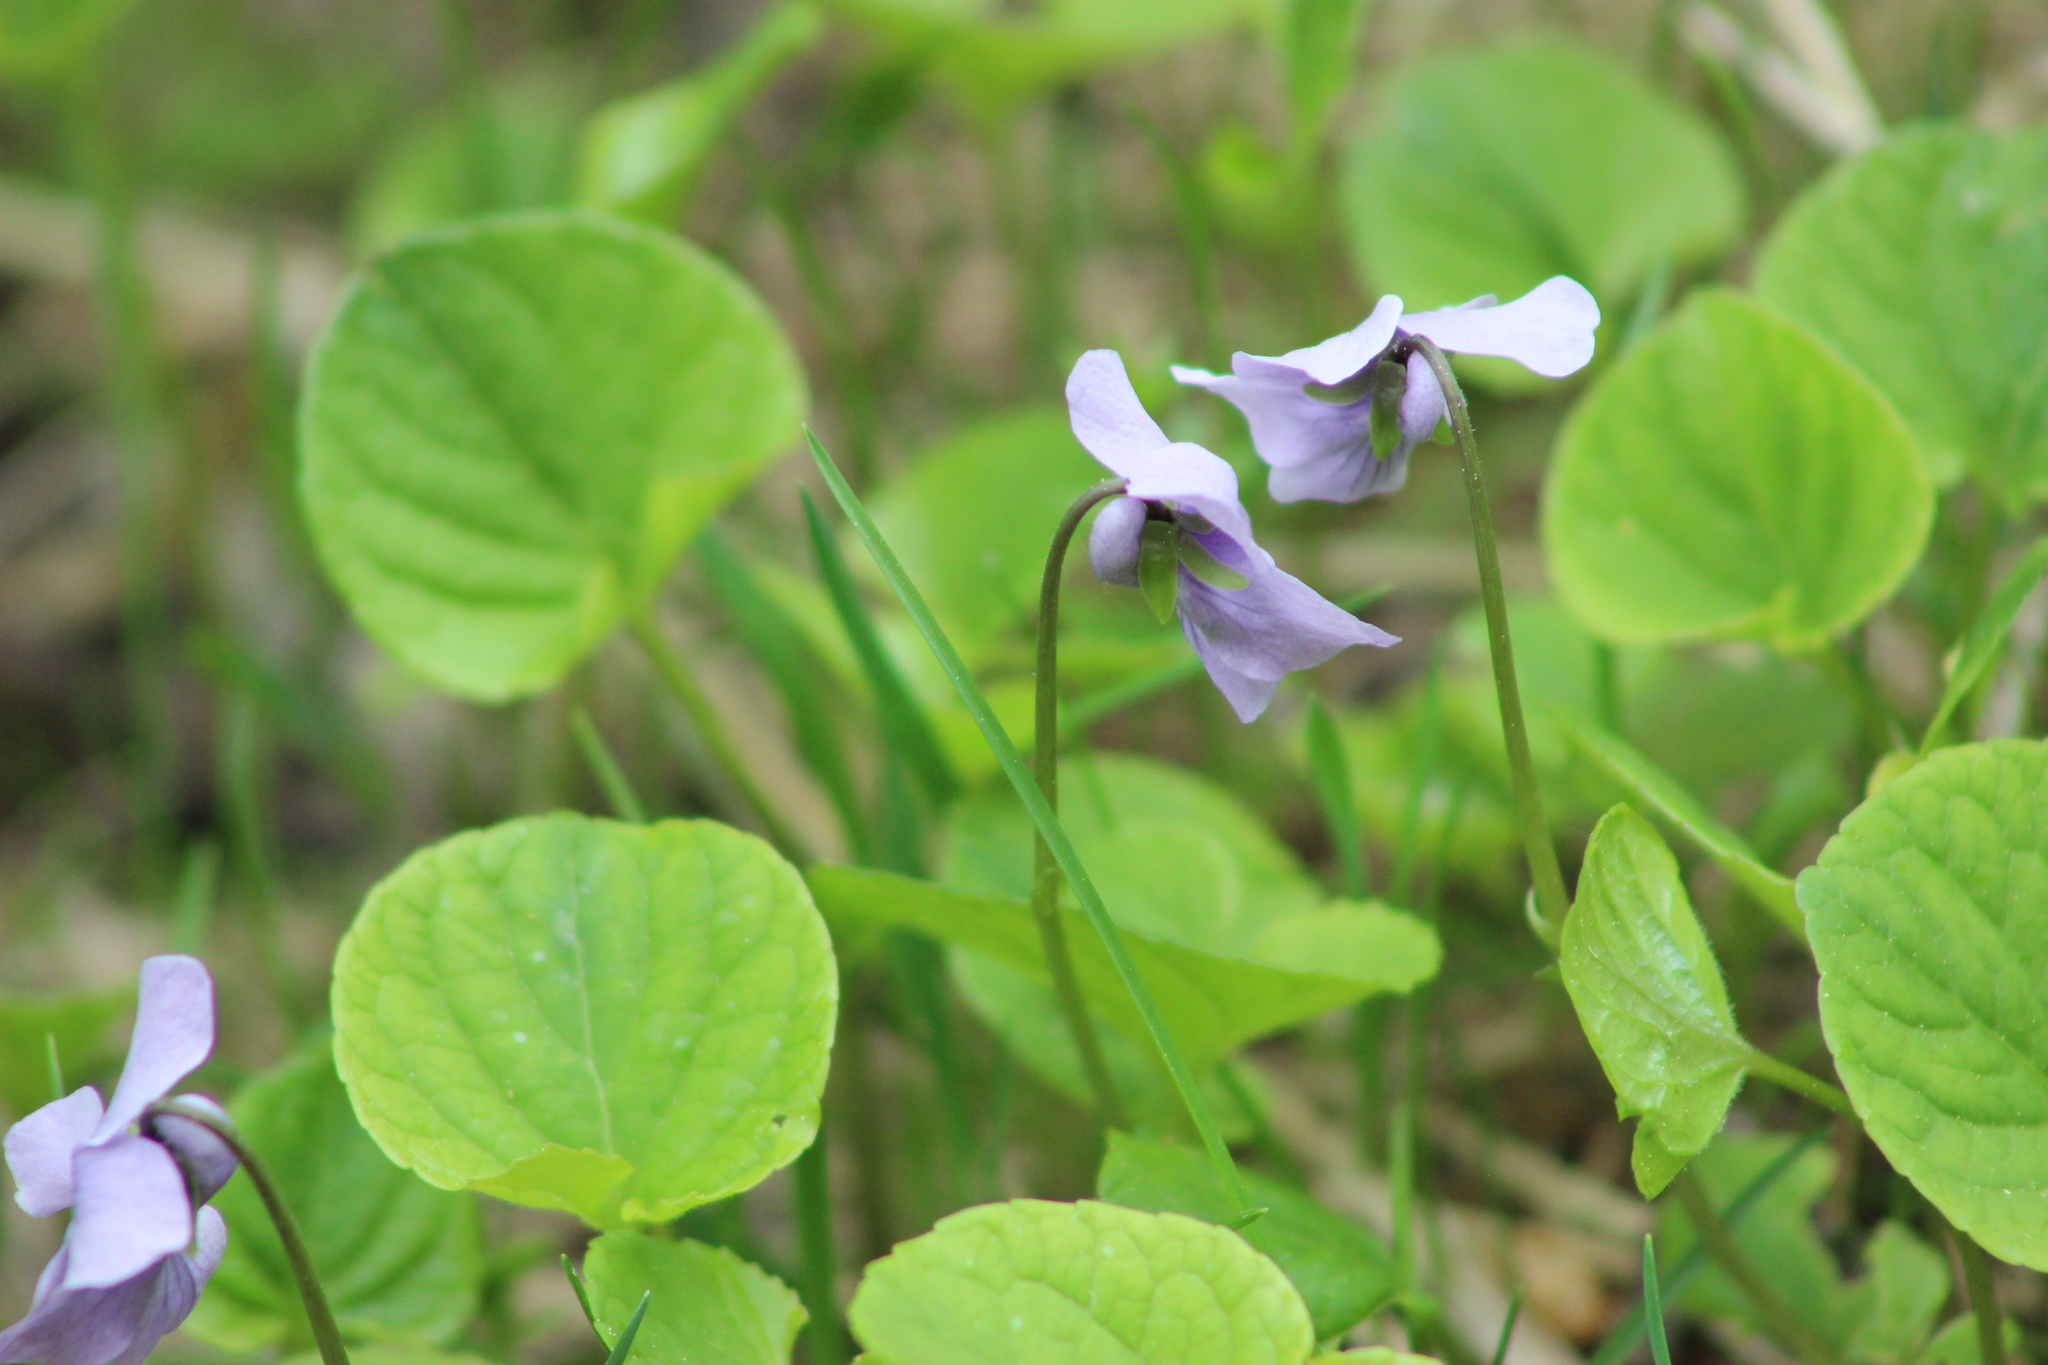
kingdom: Plantae
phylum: Tracheophyta
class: Magnoliopsida
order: Malpighiales
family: Violaceae
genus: Viola
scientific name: Viola epipsila
